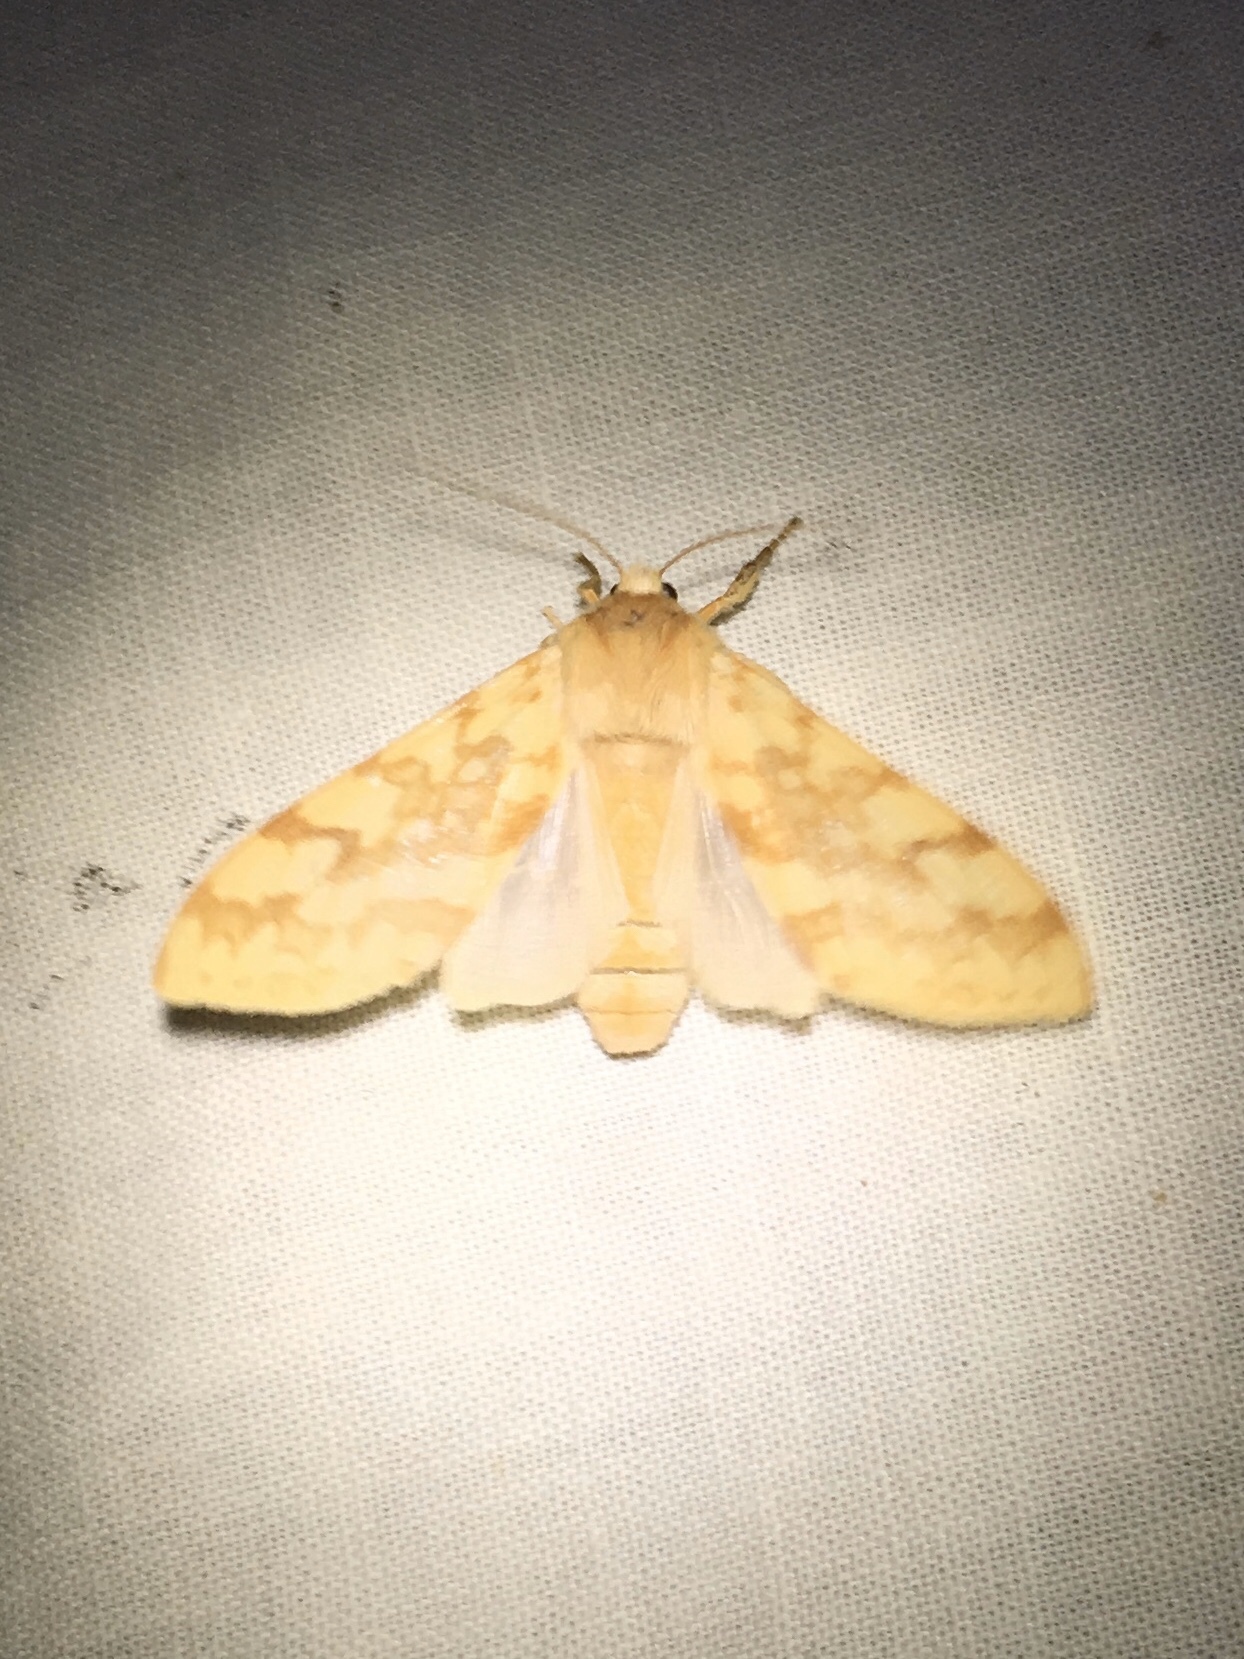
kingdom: Animalia
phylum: Arthropoda
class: Insecta
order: Lepidoptera
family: Erebidae
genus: Lophocampa
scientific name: Lophocampa maculata
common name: Spotted tussock moth
